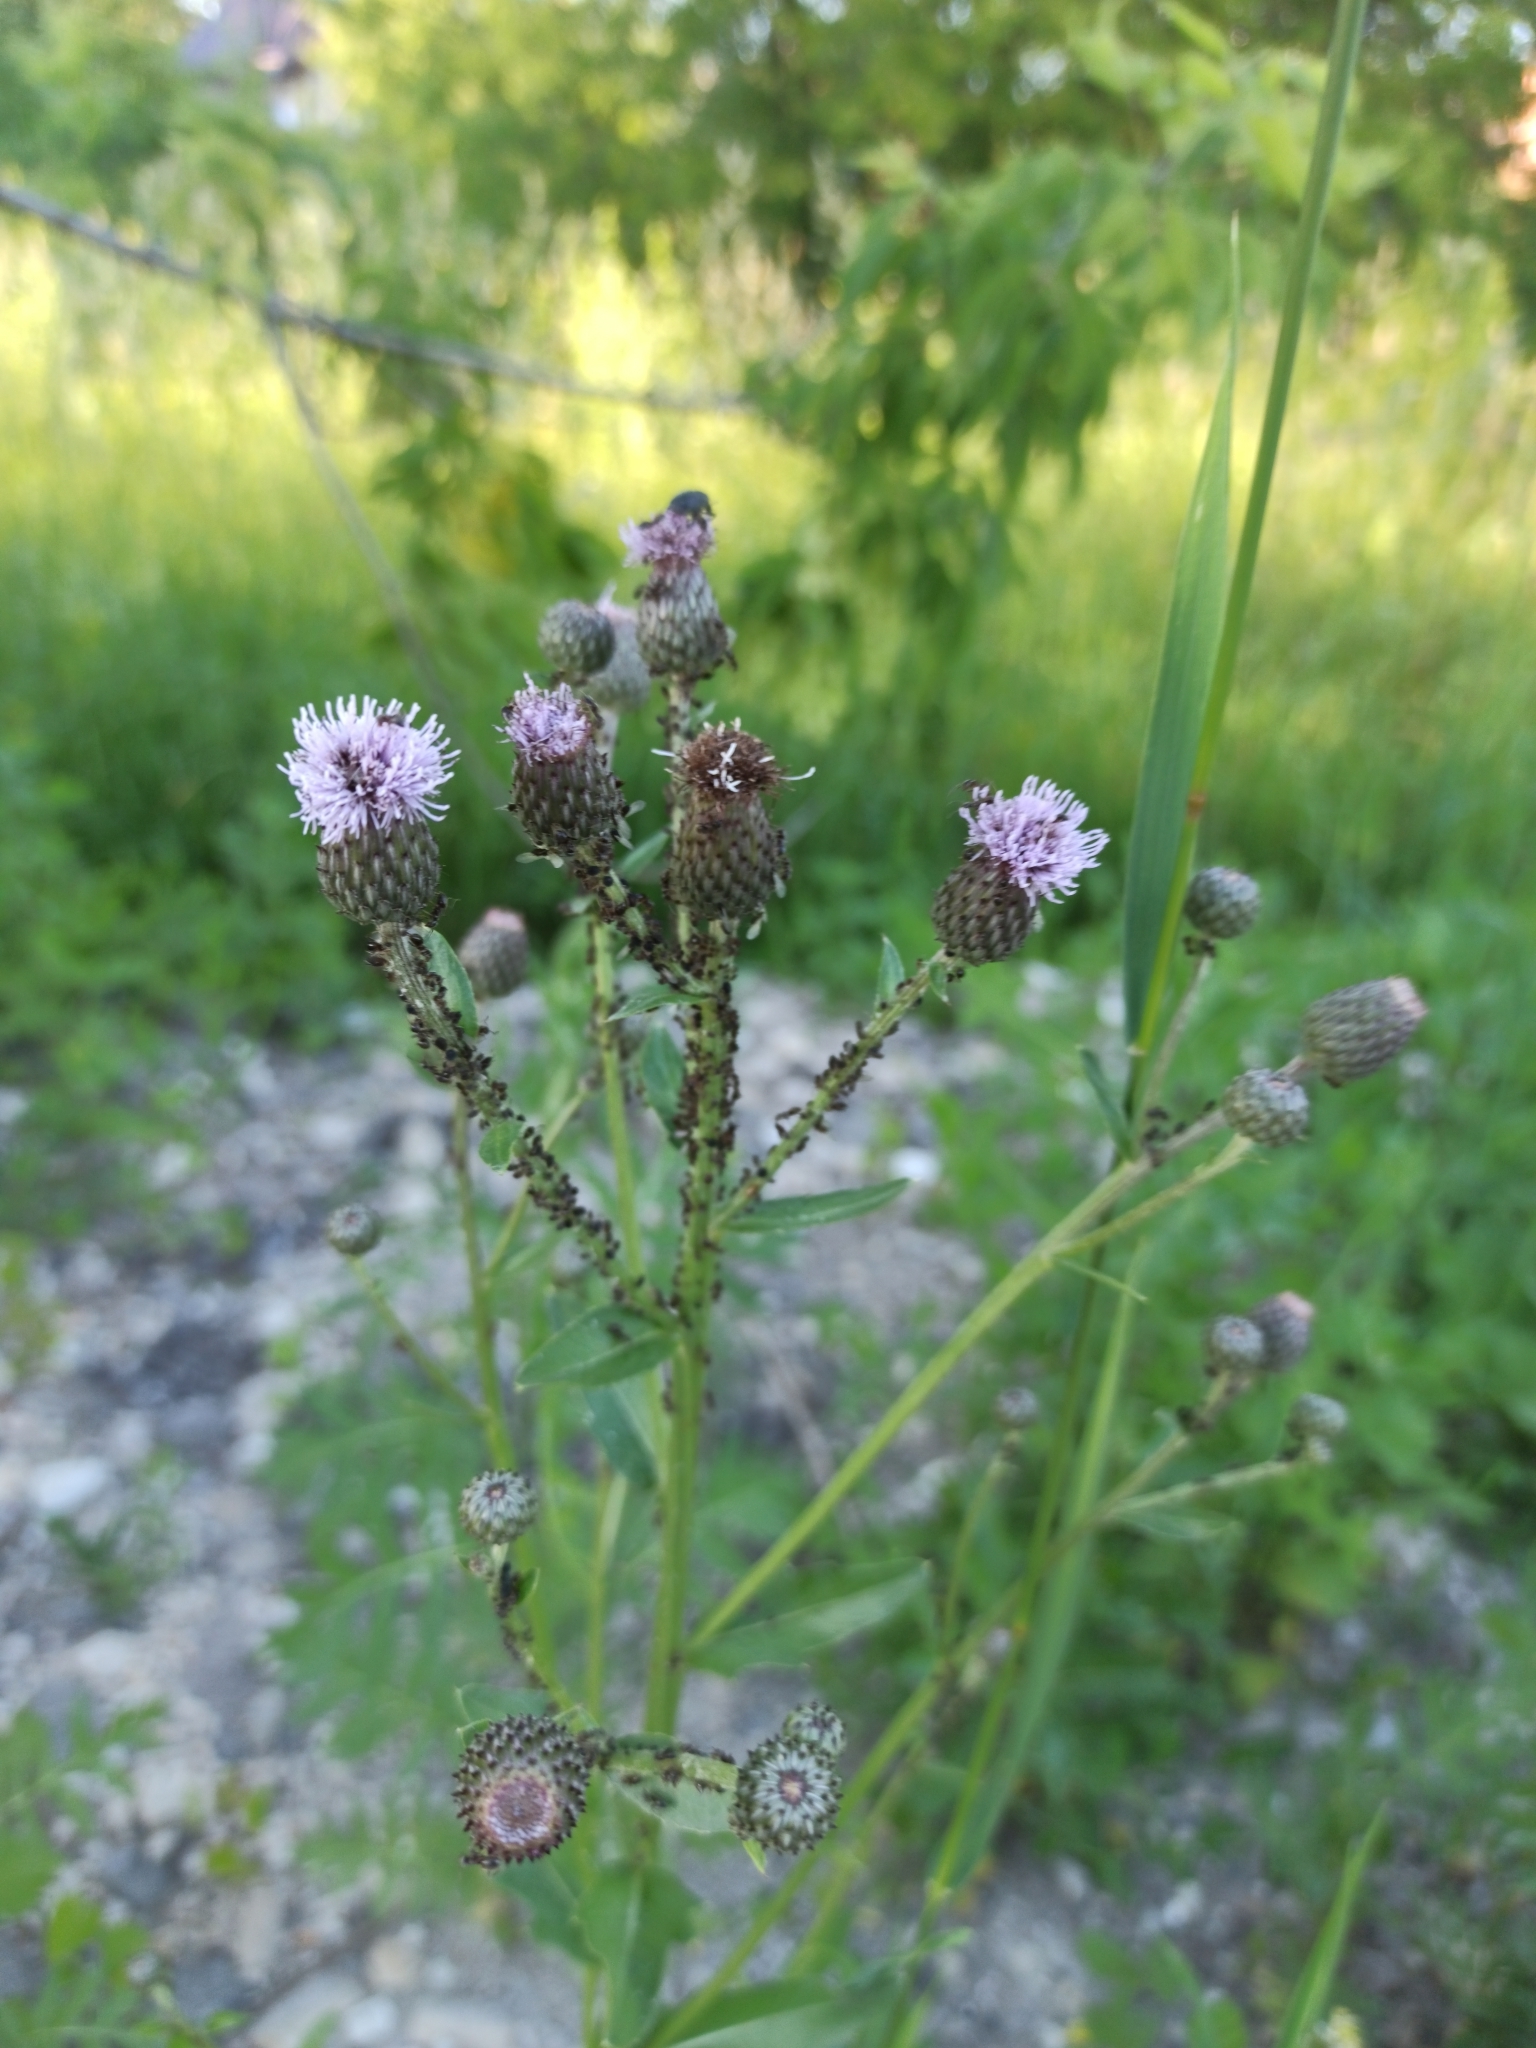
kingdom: Plantae
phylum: Tracheophyta
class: Magnoliopsida
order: Asterales
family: Asteraceae
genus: Cirsium
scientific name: Cirsium arvense
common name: Creeping thistle
